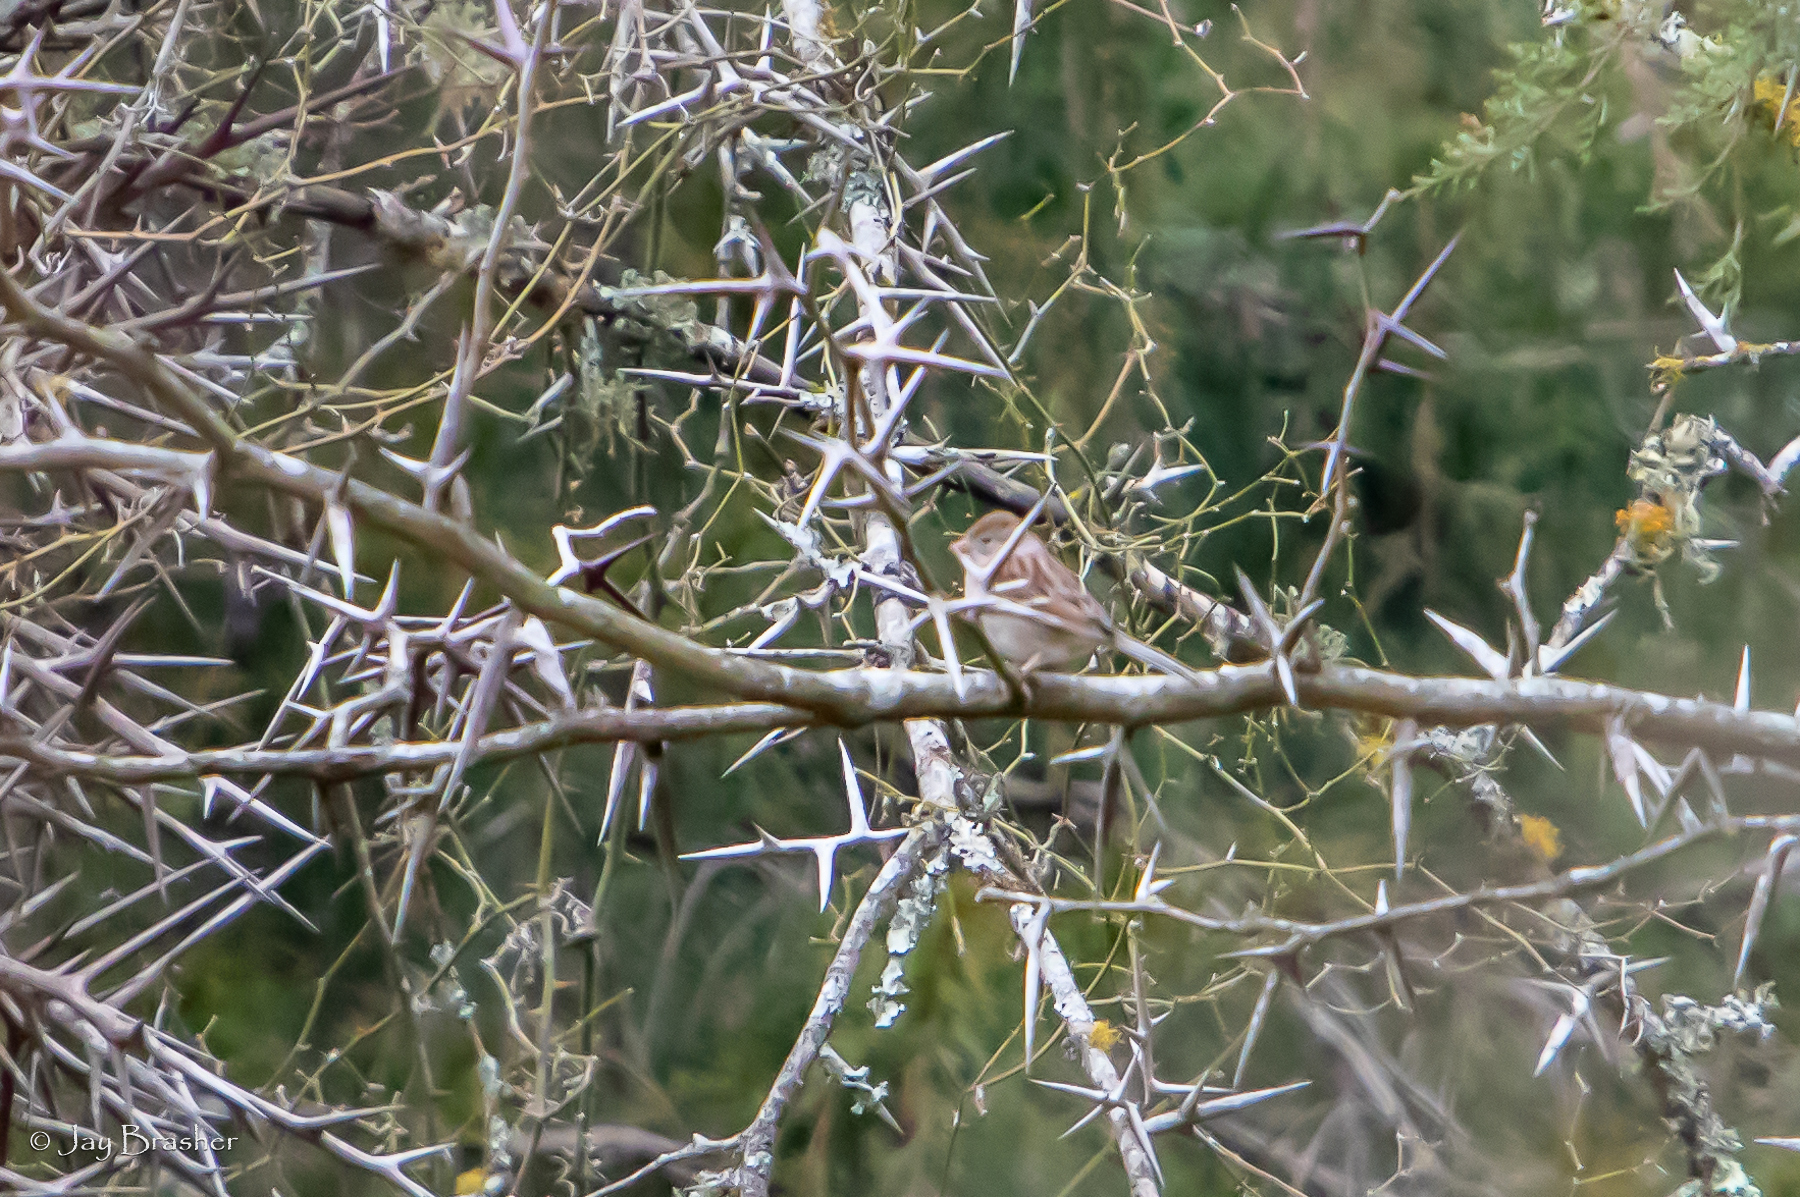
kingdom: Animalia
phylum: Chordata
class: Aves
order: Passeriformes
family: Passerellidae
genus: Spizella
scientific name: Spizella pusilla
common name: Field sparrow
